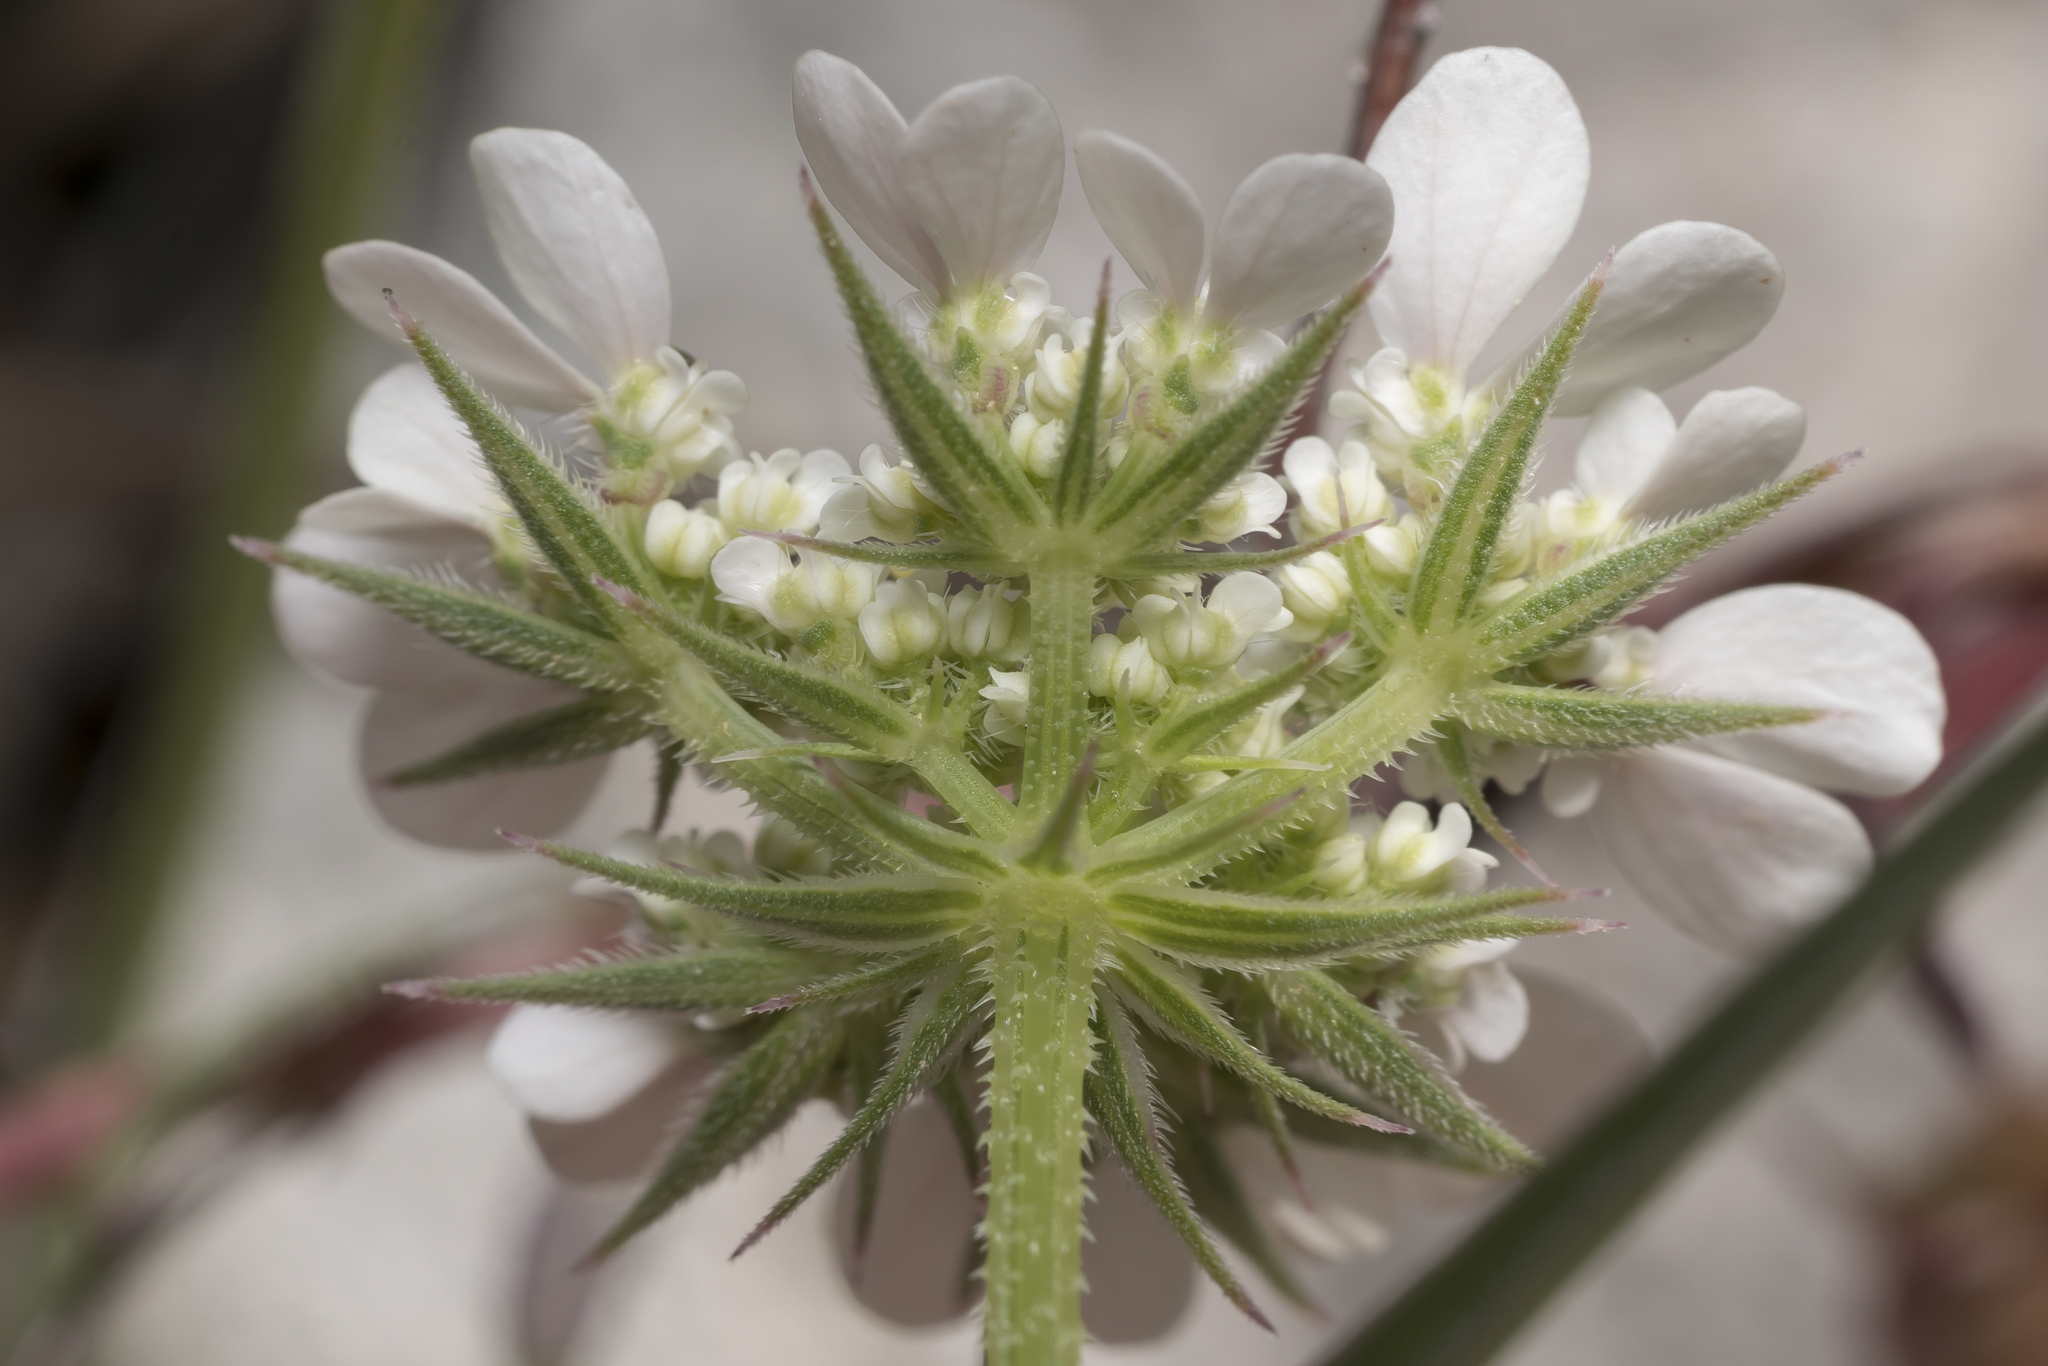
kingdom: Plantae
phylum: Tracheophyta
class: Magnoliopsida
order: Apiales
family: Apiaceae
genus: Tordylium
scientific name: Tordylium aegaeum
